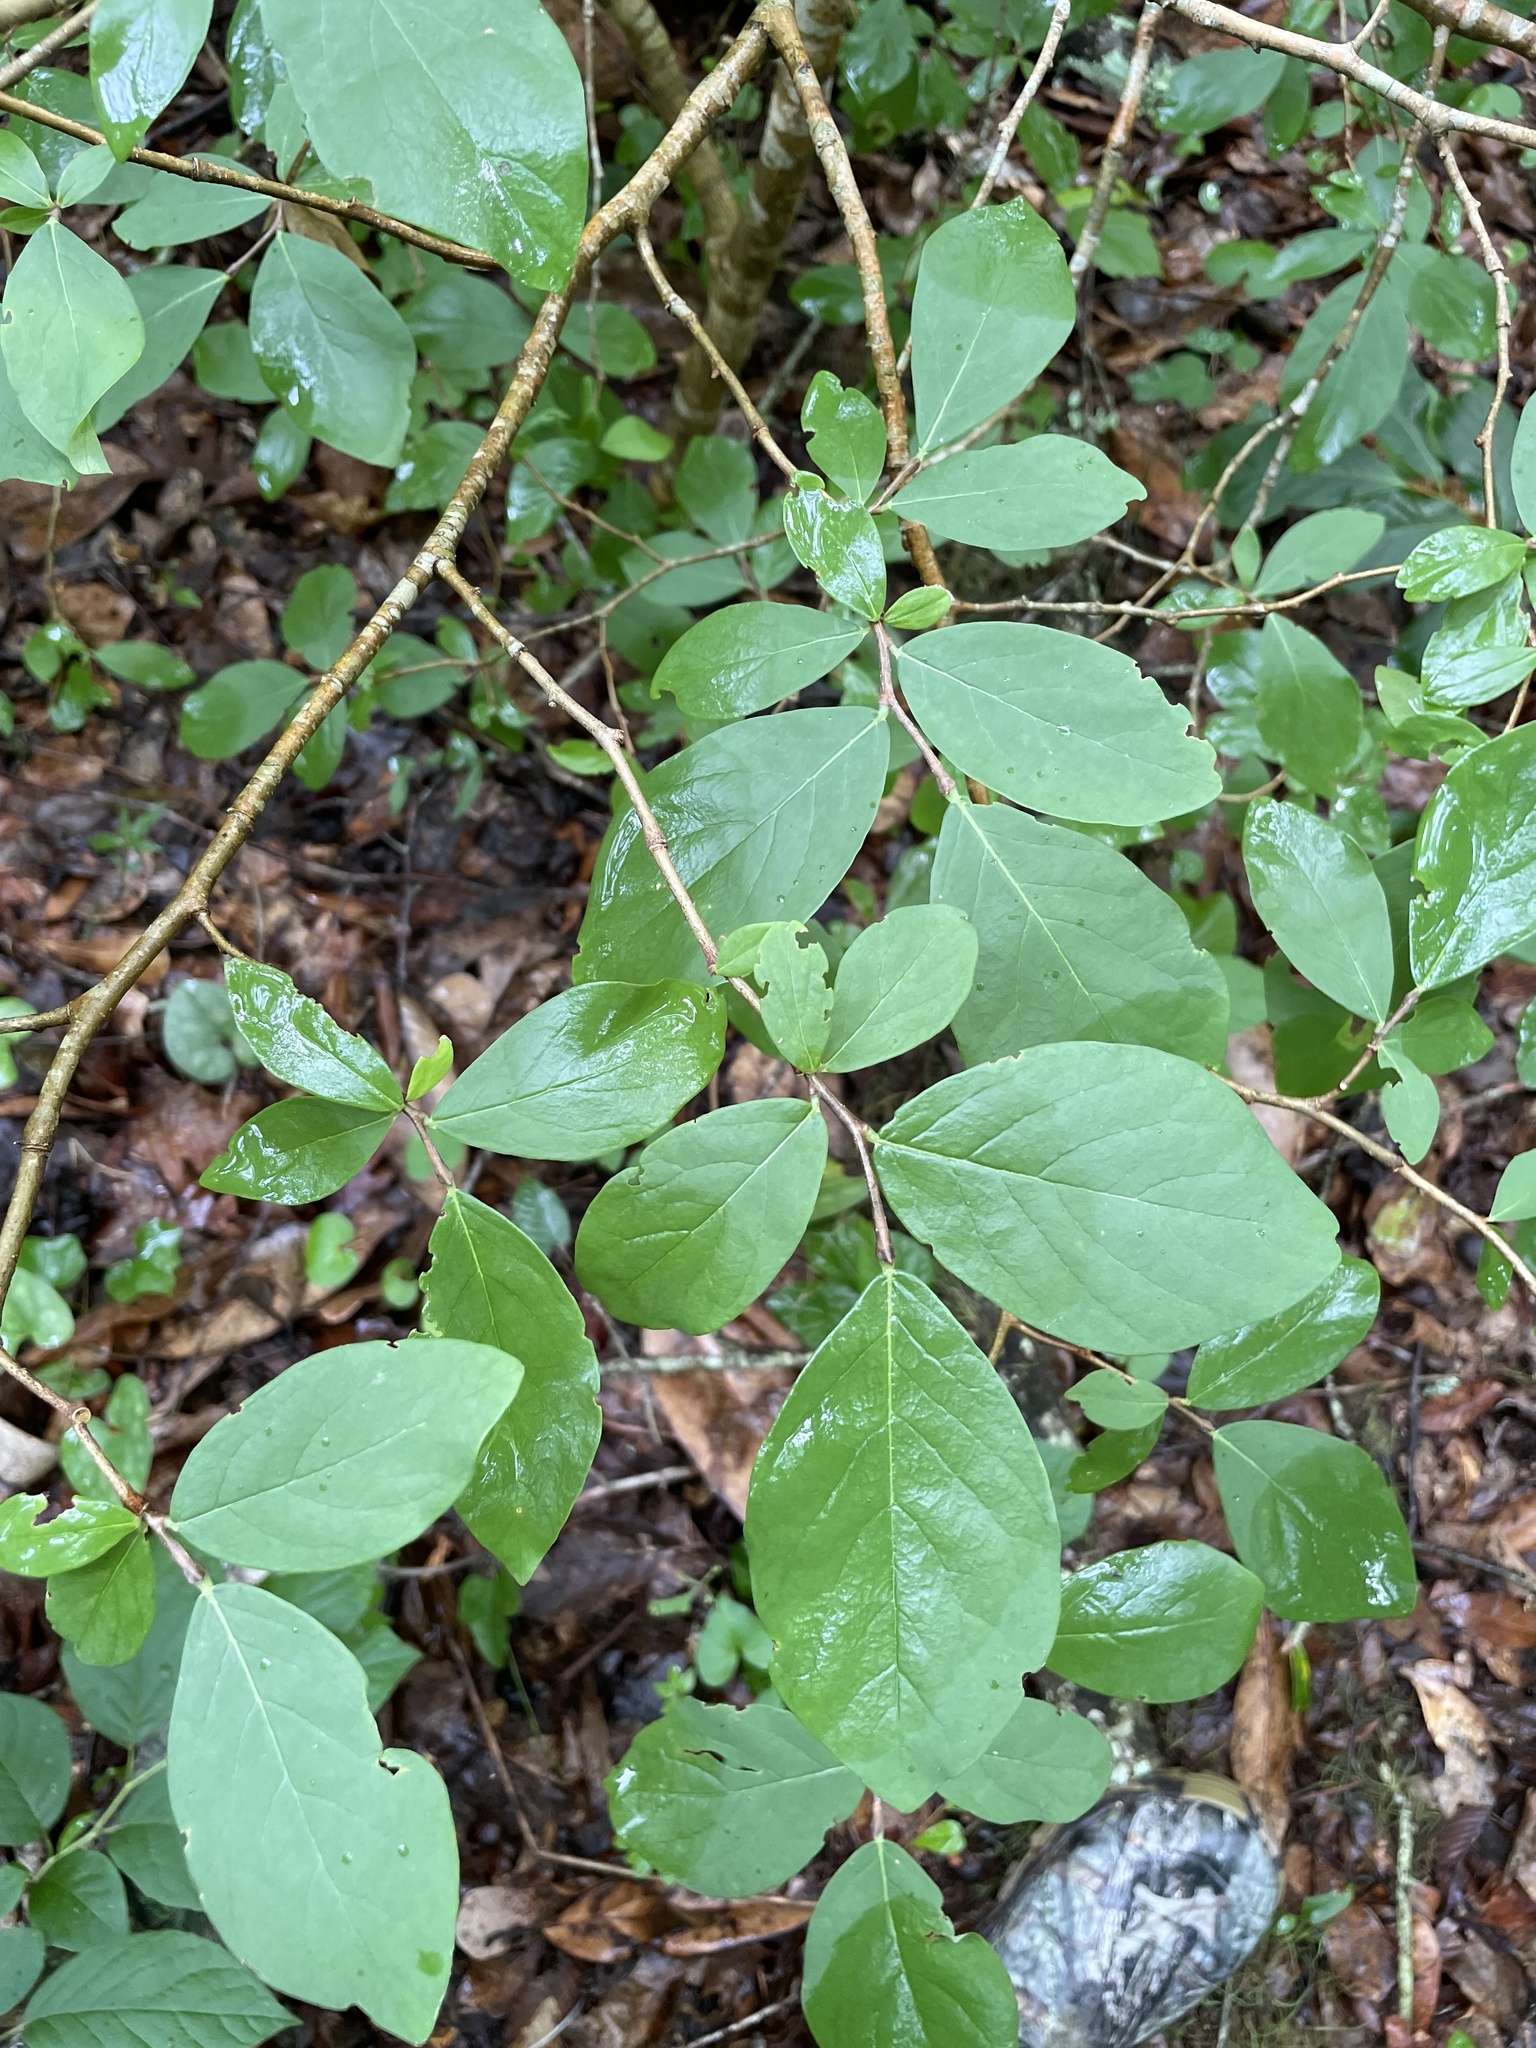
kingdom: Plantae
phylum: Tracheophyta
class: Magnoliopsida
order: Malvales
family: Thymelaeaceae
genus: Dirca
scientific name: Dirca palustris
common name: Leatherwood
